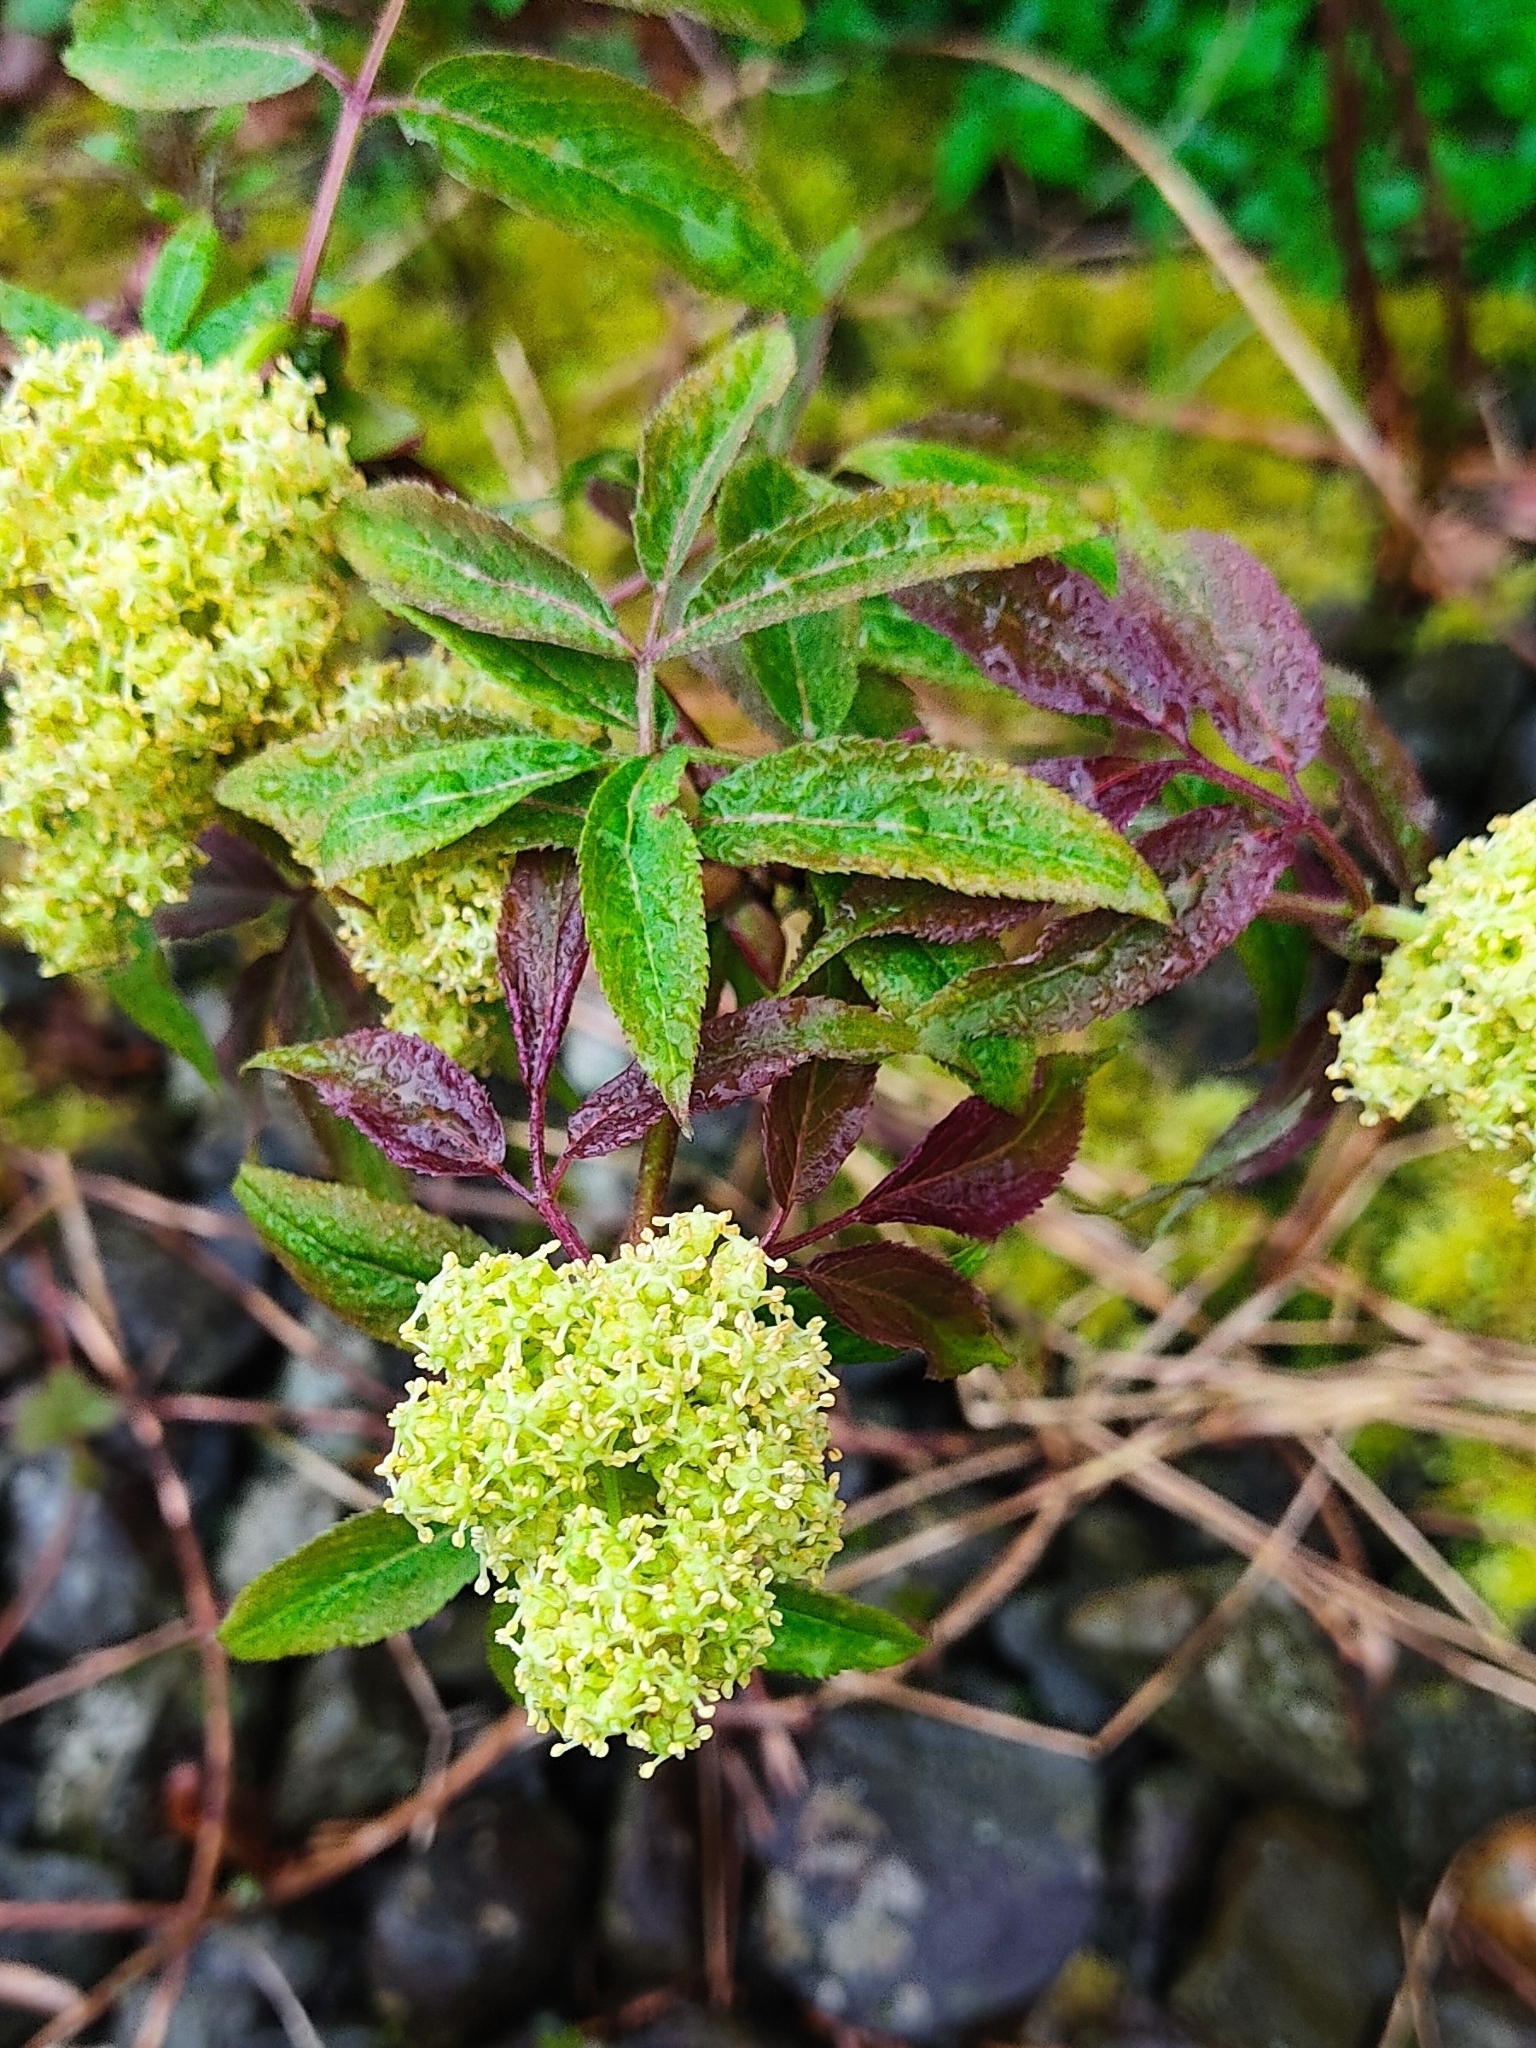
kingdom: Plantae
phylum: Tracheophyta
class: Magnoliopsida
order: Dipsacales
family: Viburnaceae
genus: Sambucus
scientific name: Sambucus racemosa
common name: Red-berried elder
